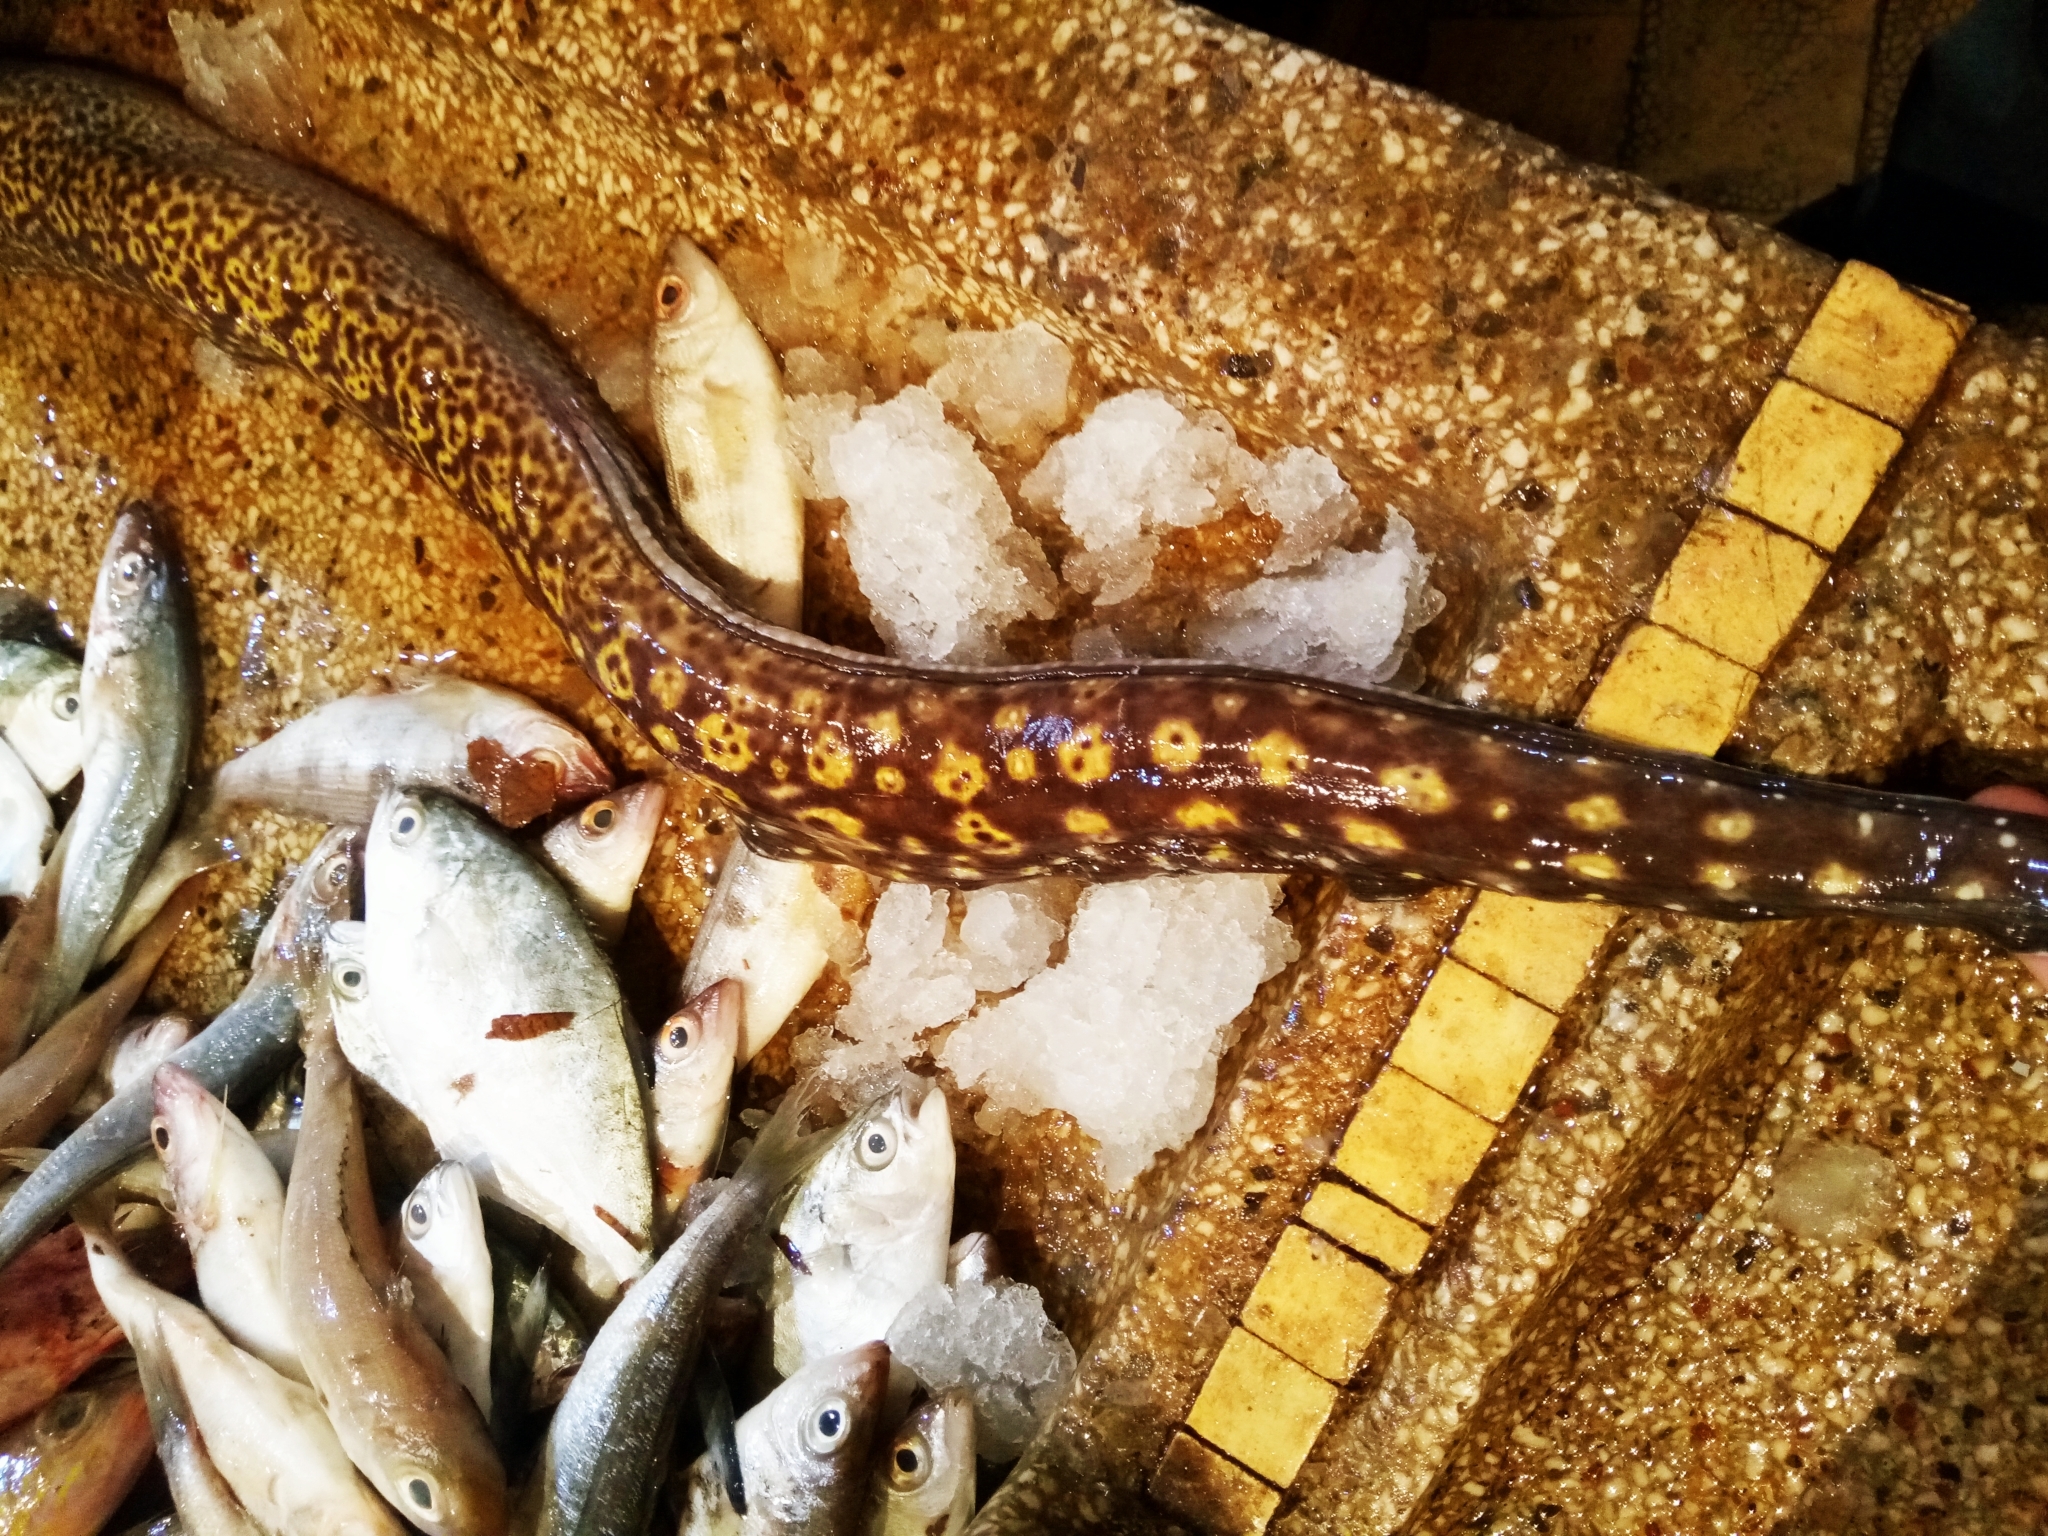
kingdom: Animalia
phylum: Chordata
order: Anguilliformes
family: Muraenidae
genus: Muraena
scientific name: Muraena helena
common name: Mediterranean moray
